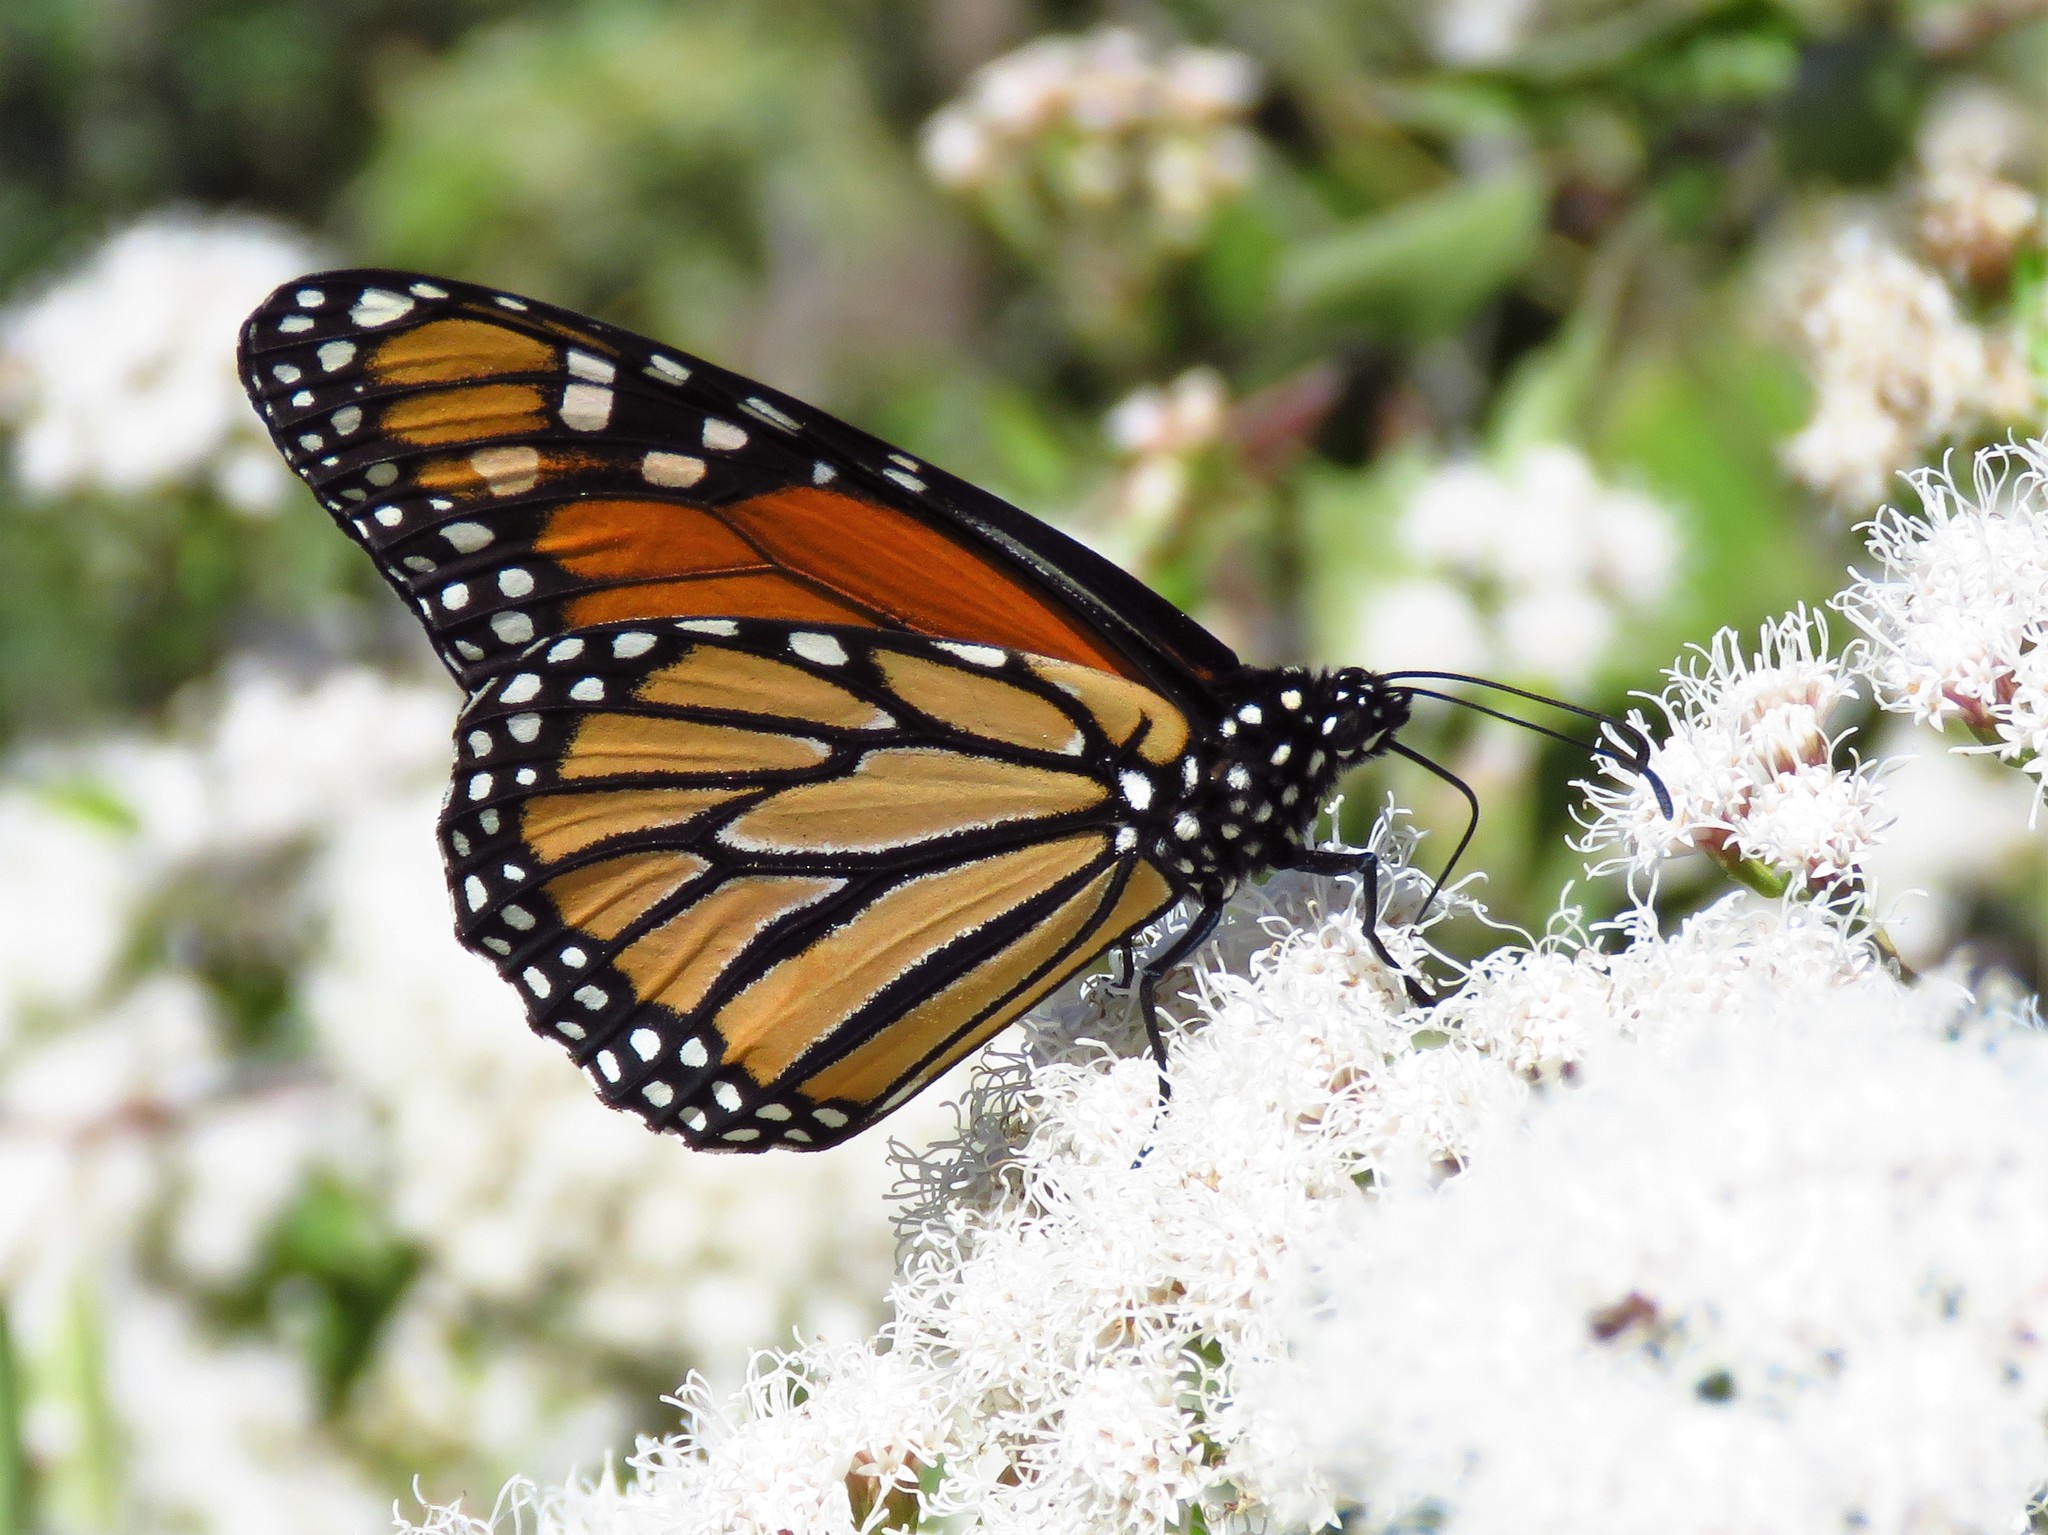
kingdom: Animalia
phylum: Arthropoda
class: Insecta
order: Lepidoptera
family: Nymphalidae
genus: Danaus
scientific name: Danaus plexippus
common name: Monarch
